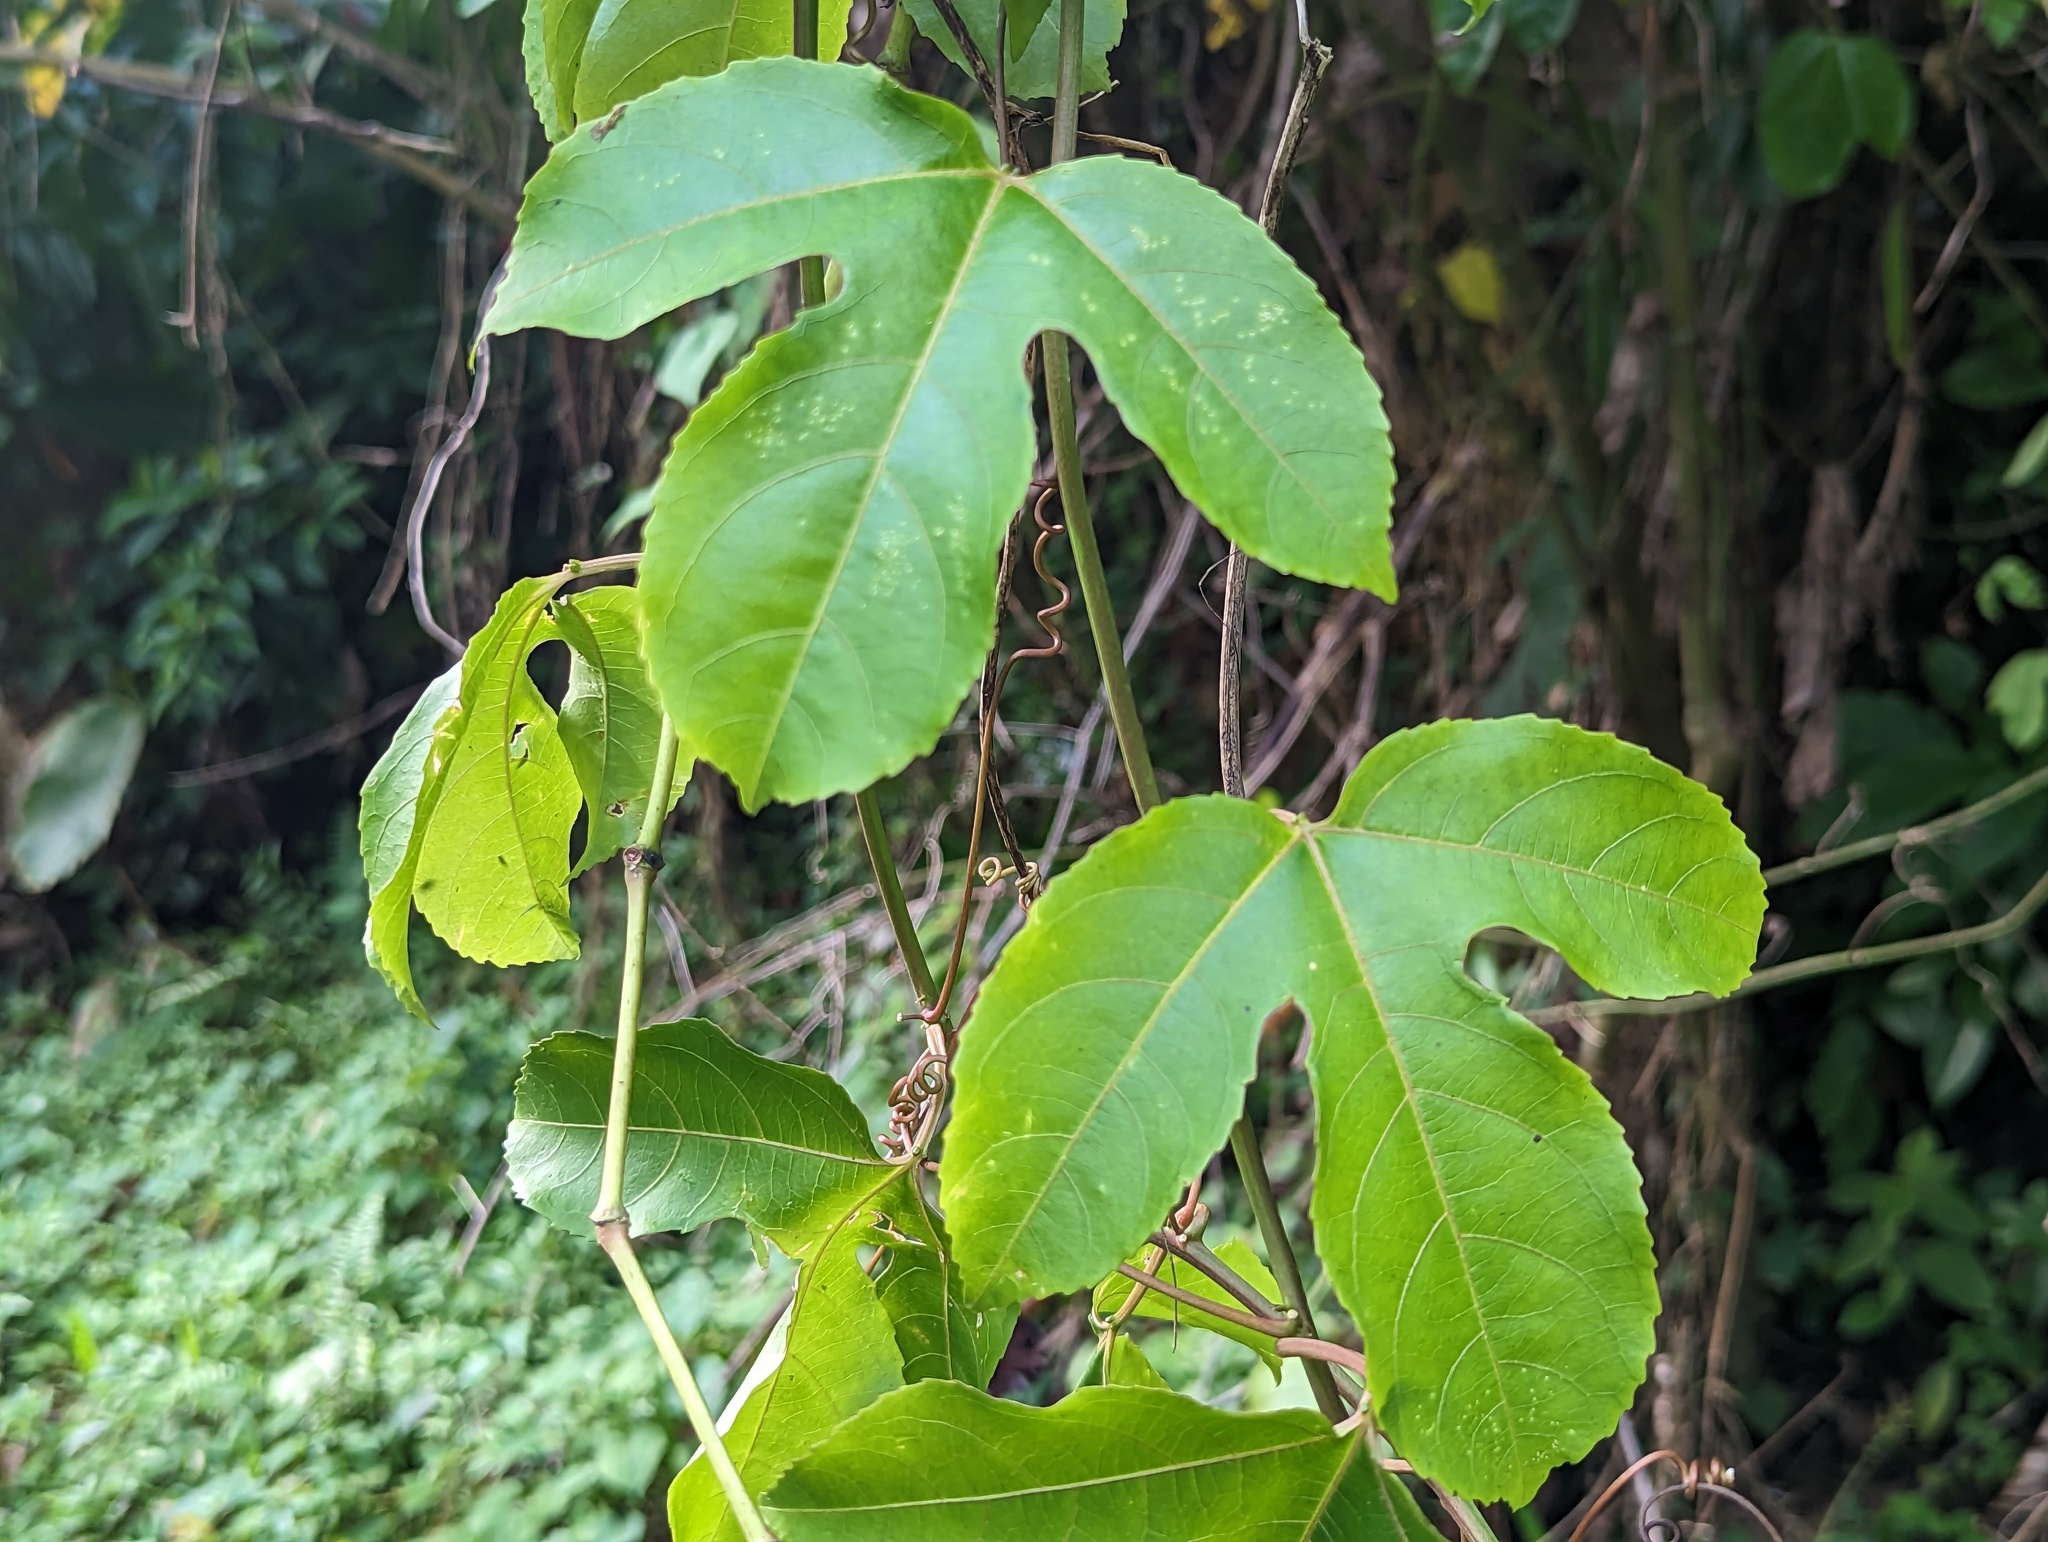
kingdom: Plantae
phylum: Tracheophyta
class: Magnoliopsida
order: Malpighiales
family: Passifloraceae
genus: Passiflora
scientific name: Passiflora edulis
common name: Purple granadilla
